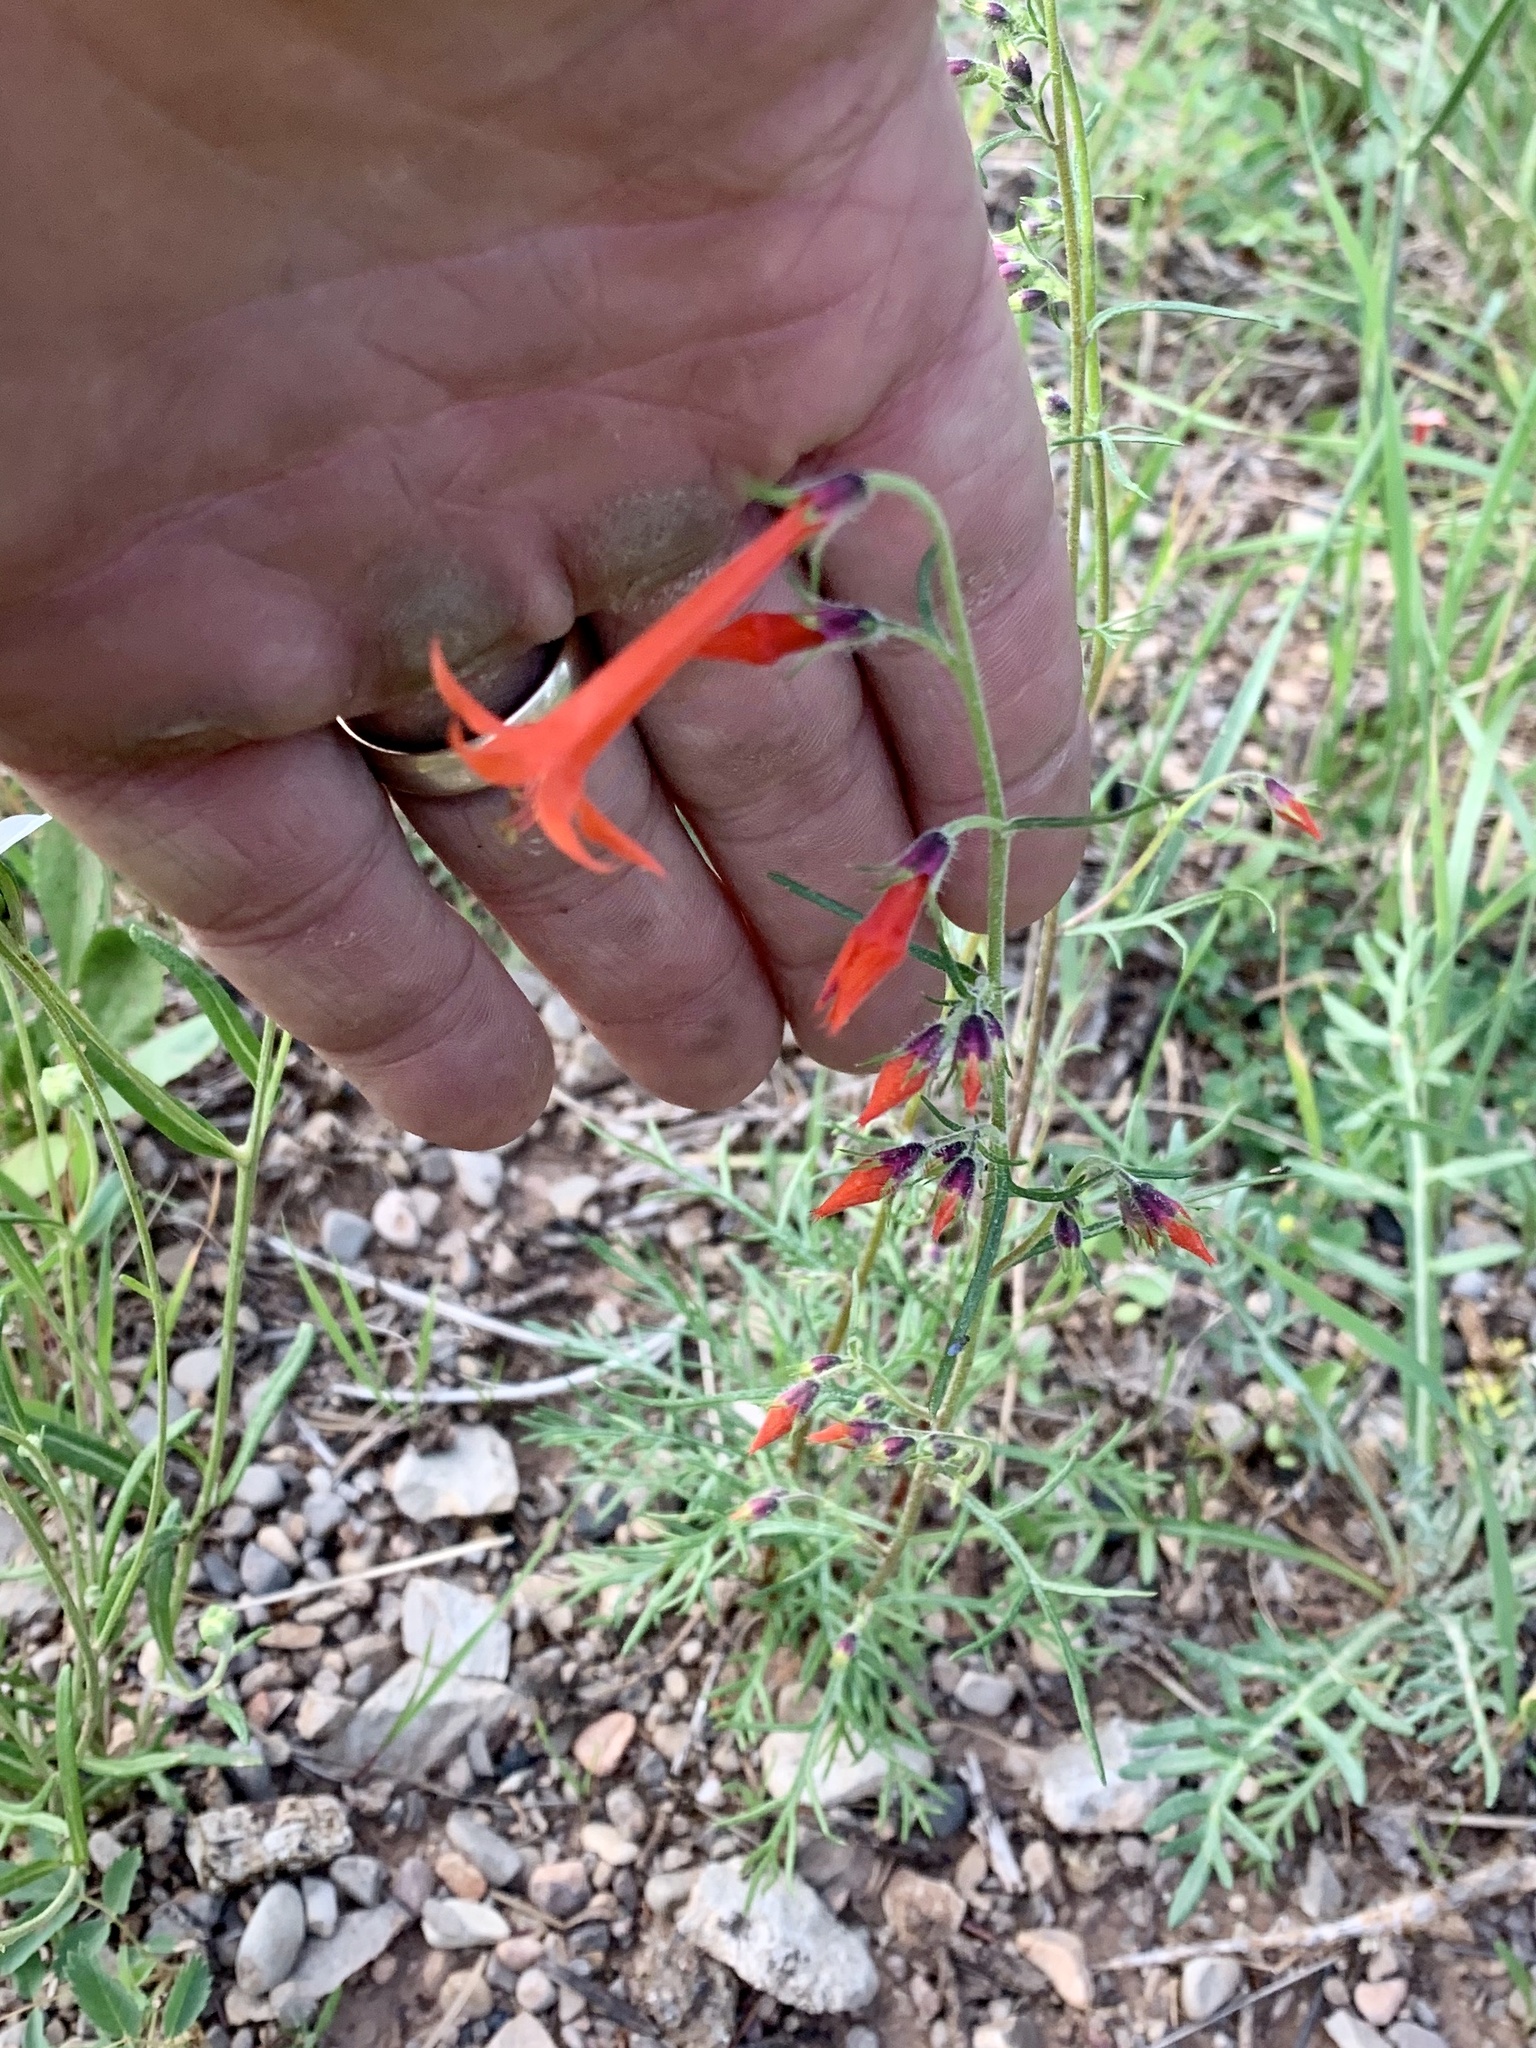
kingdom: Plantae
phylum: Tracheophyta
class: Magnoliopsida
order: Ericales
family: Polemoniaceae
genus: Ipomopsis
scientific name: Ipomopsis aggregata
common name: Scarlet gilia
